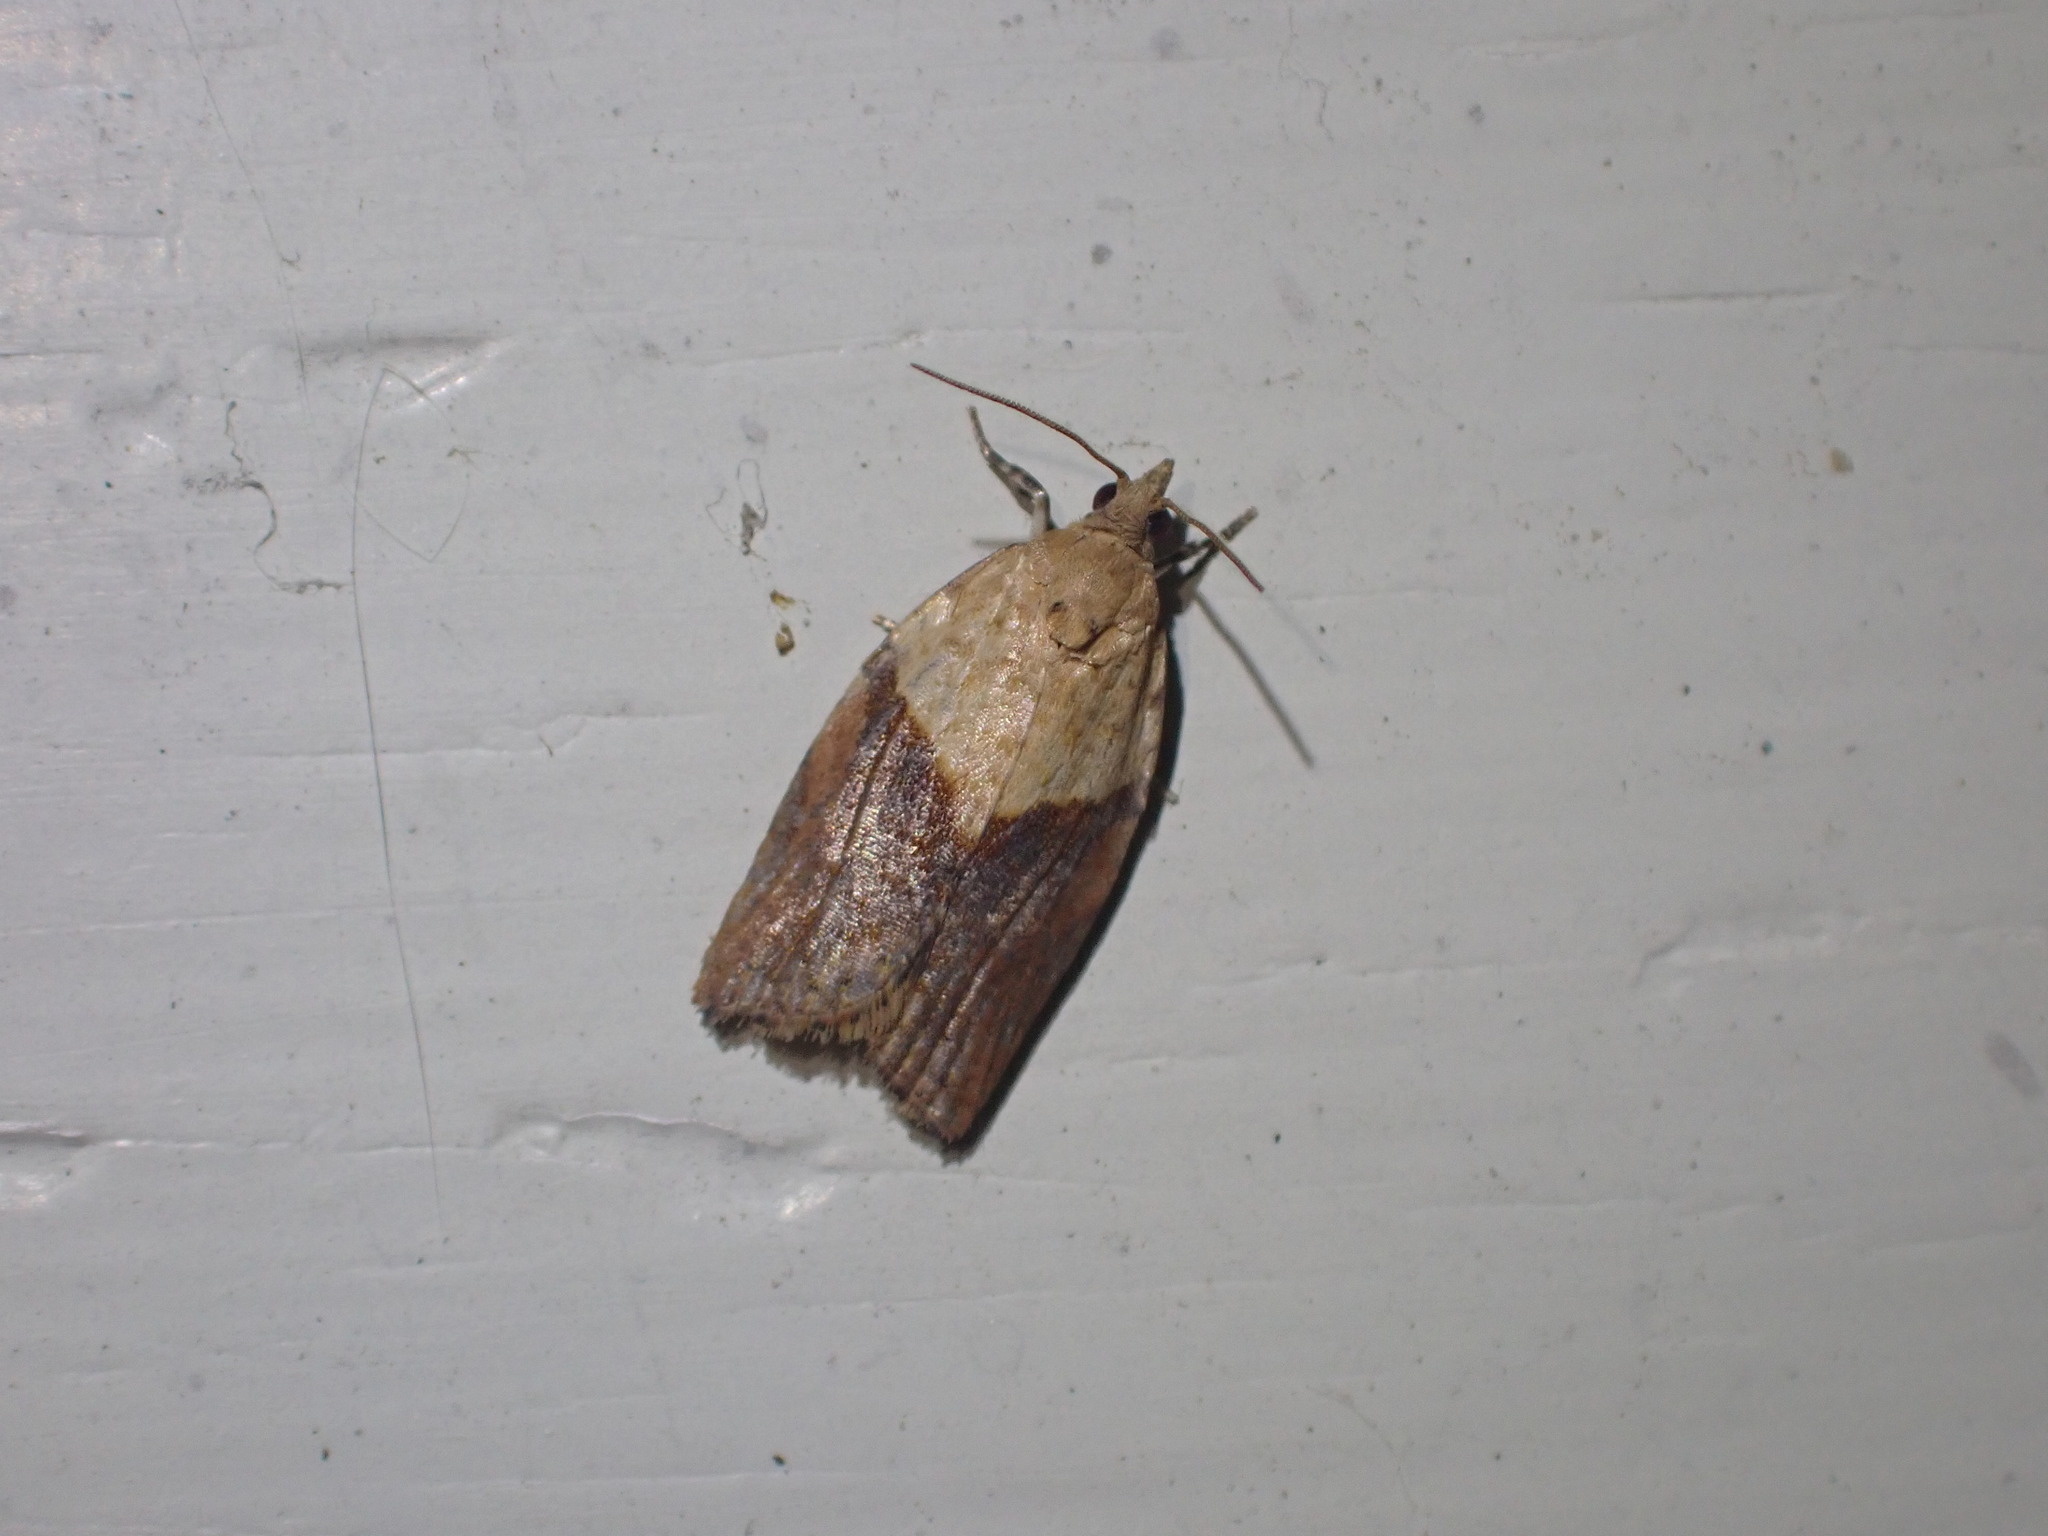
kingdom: Animalia
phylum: Arthropoda
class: Insecta
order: Lepidoptera
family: Tortricidae
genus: Epiphyas
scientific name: Epiphyas postvittana
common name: Light brown apple moth
